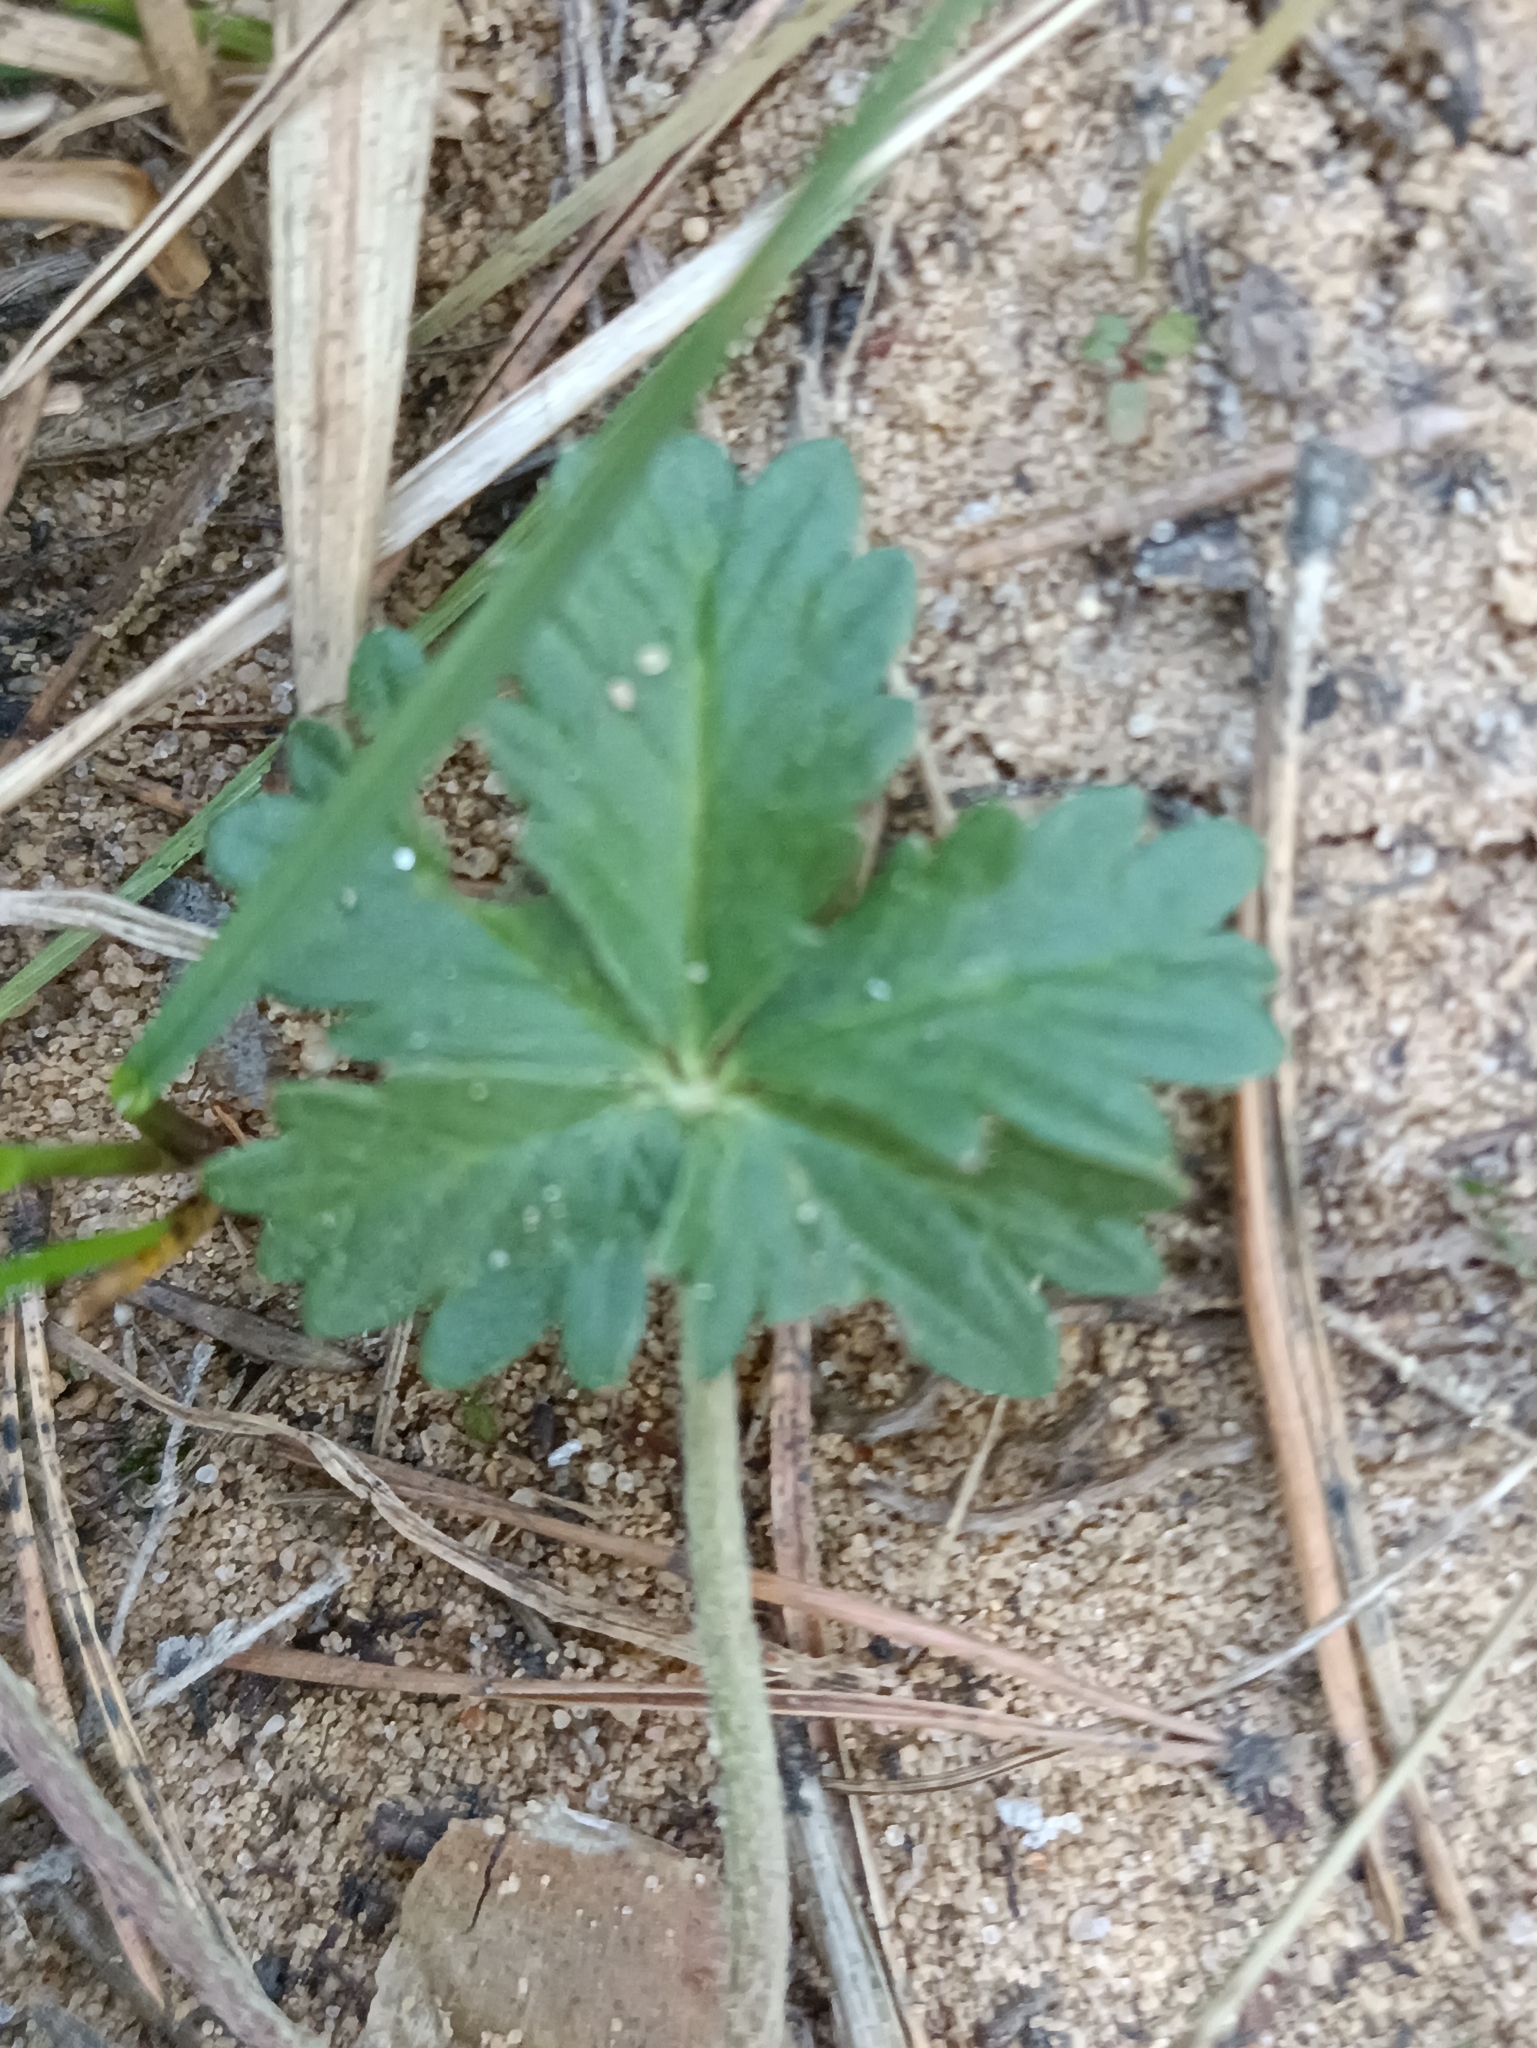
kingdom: Plantae
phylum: Tracheophyta
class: Magnoliopsida
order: Rosales
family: Rosaceae
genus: Potentilla
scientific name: Potentilla argentea
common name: Hoary cinquefoil
